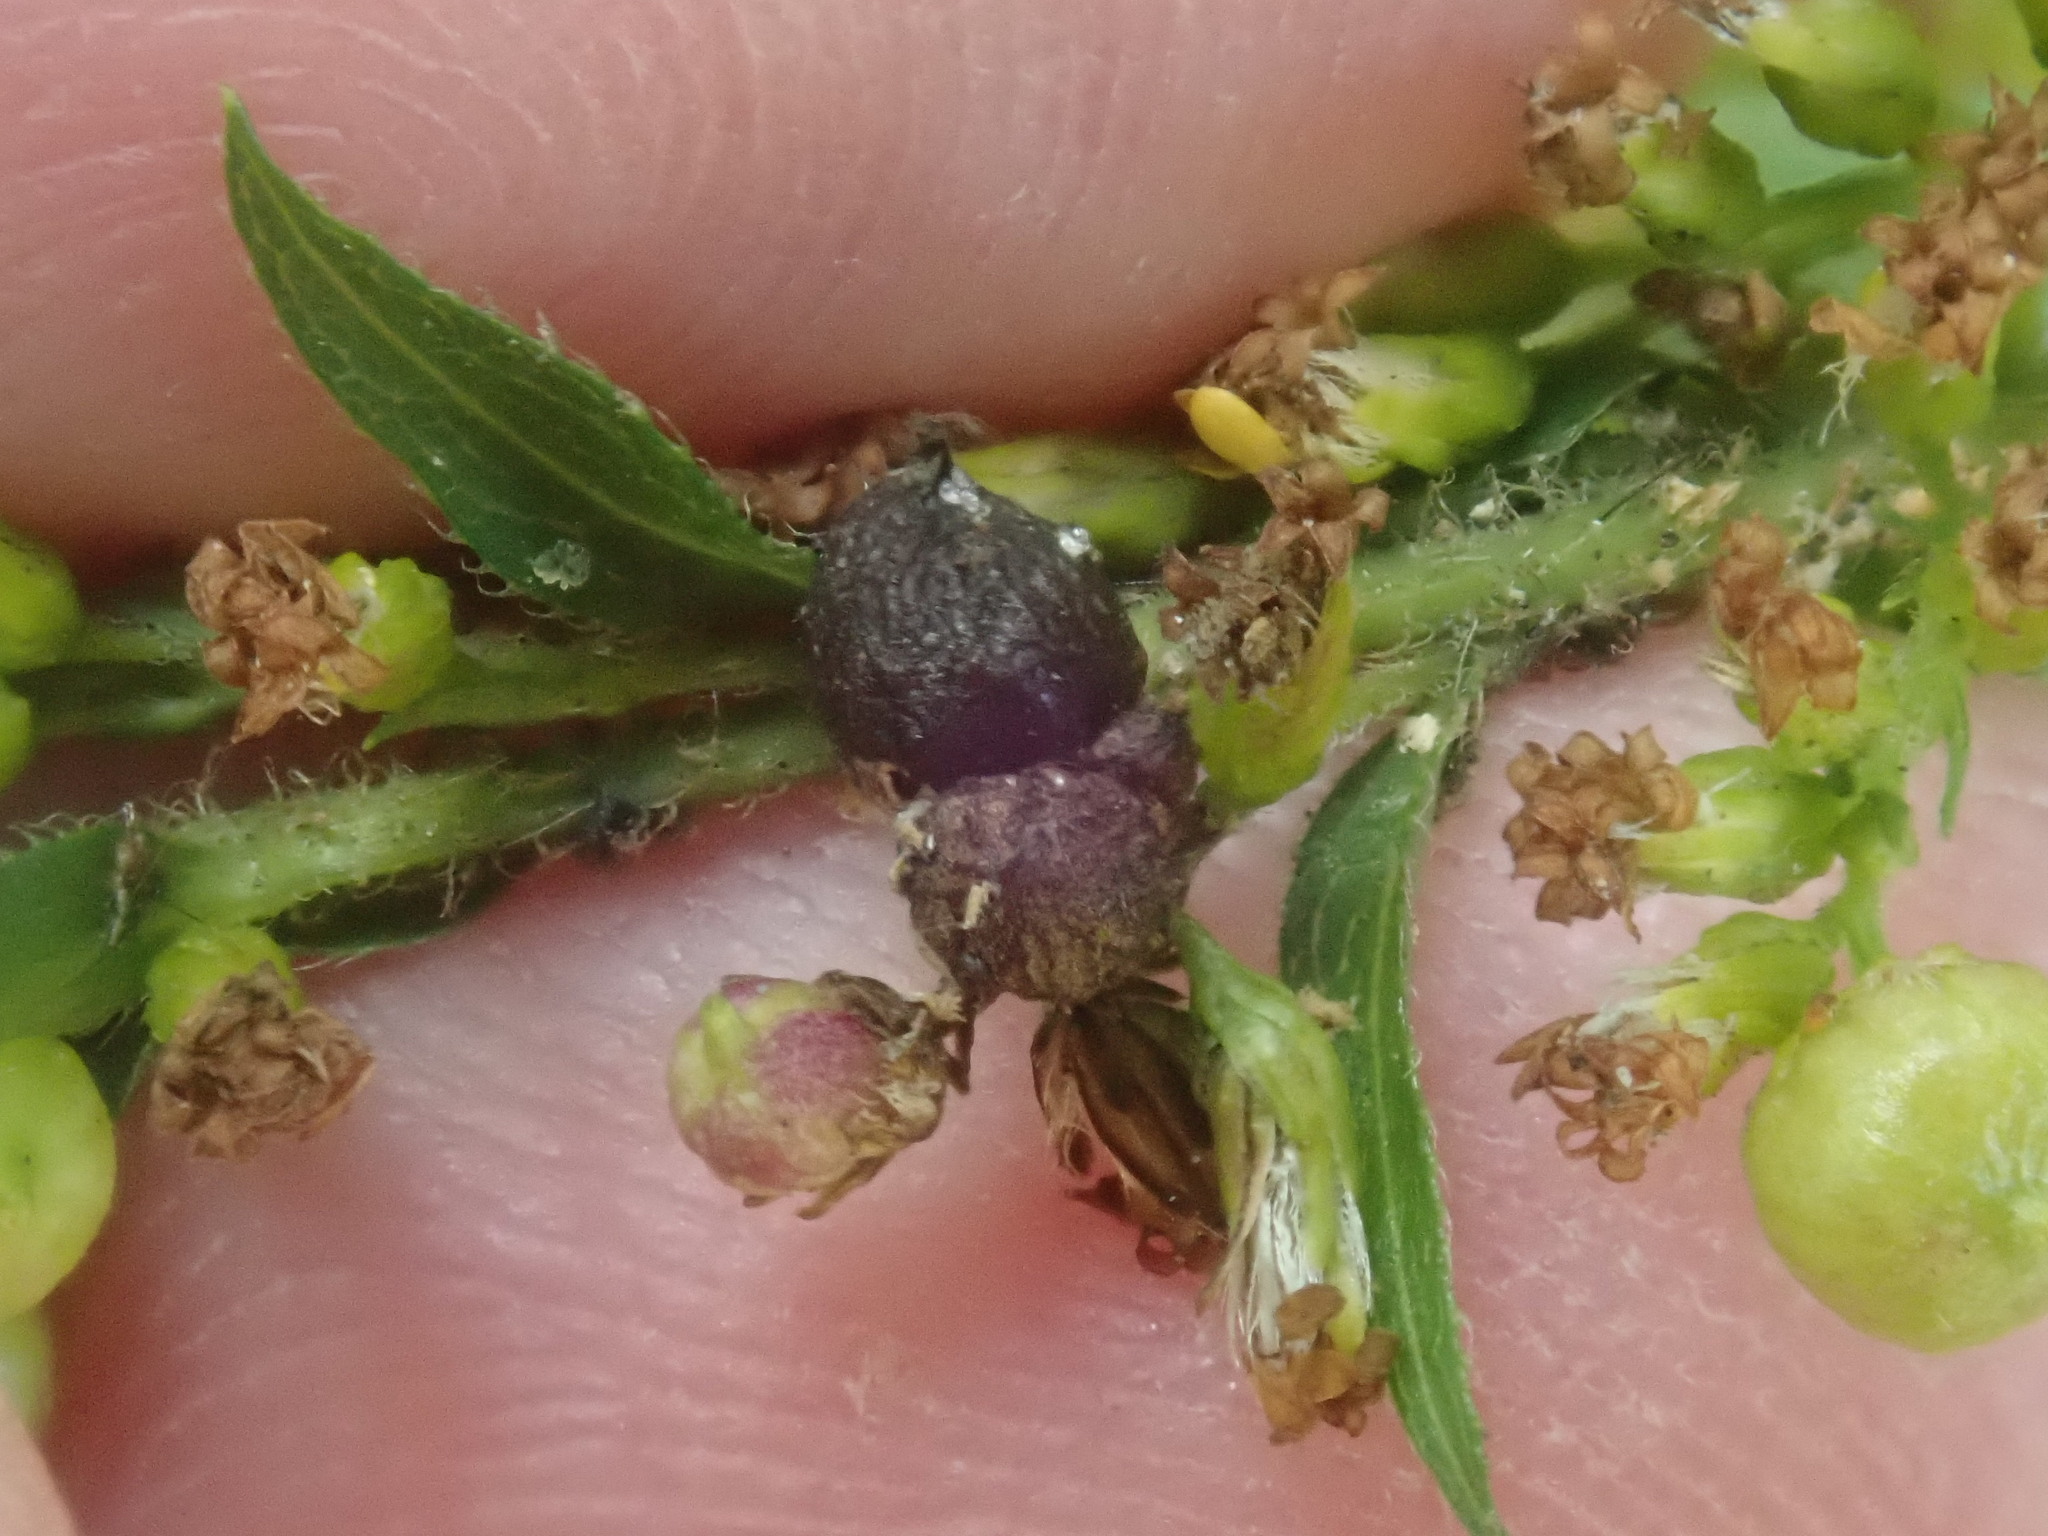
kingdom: Animalia
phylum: Arthropoda
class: Insecta
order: Diptera
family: Cecidomyiidae
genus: Schizomyia
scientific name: Schizomyia racemicola
